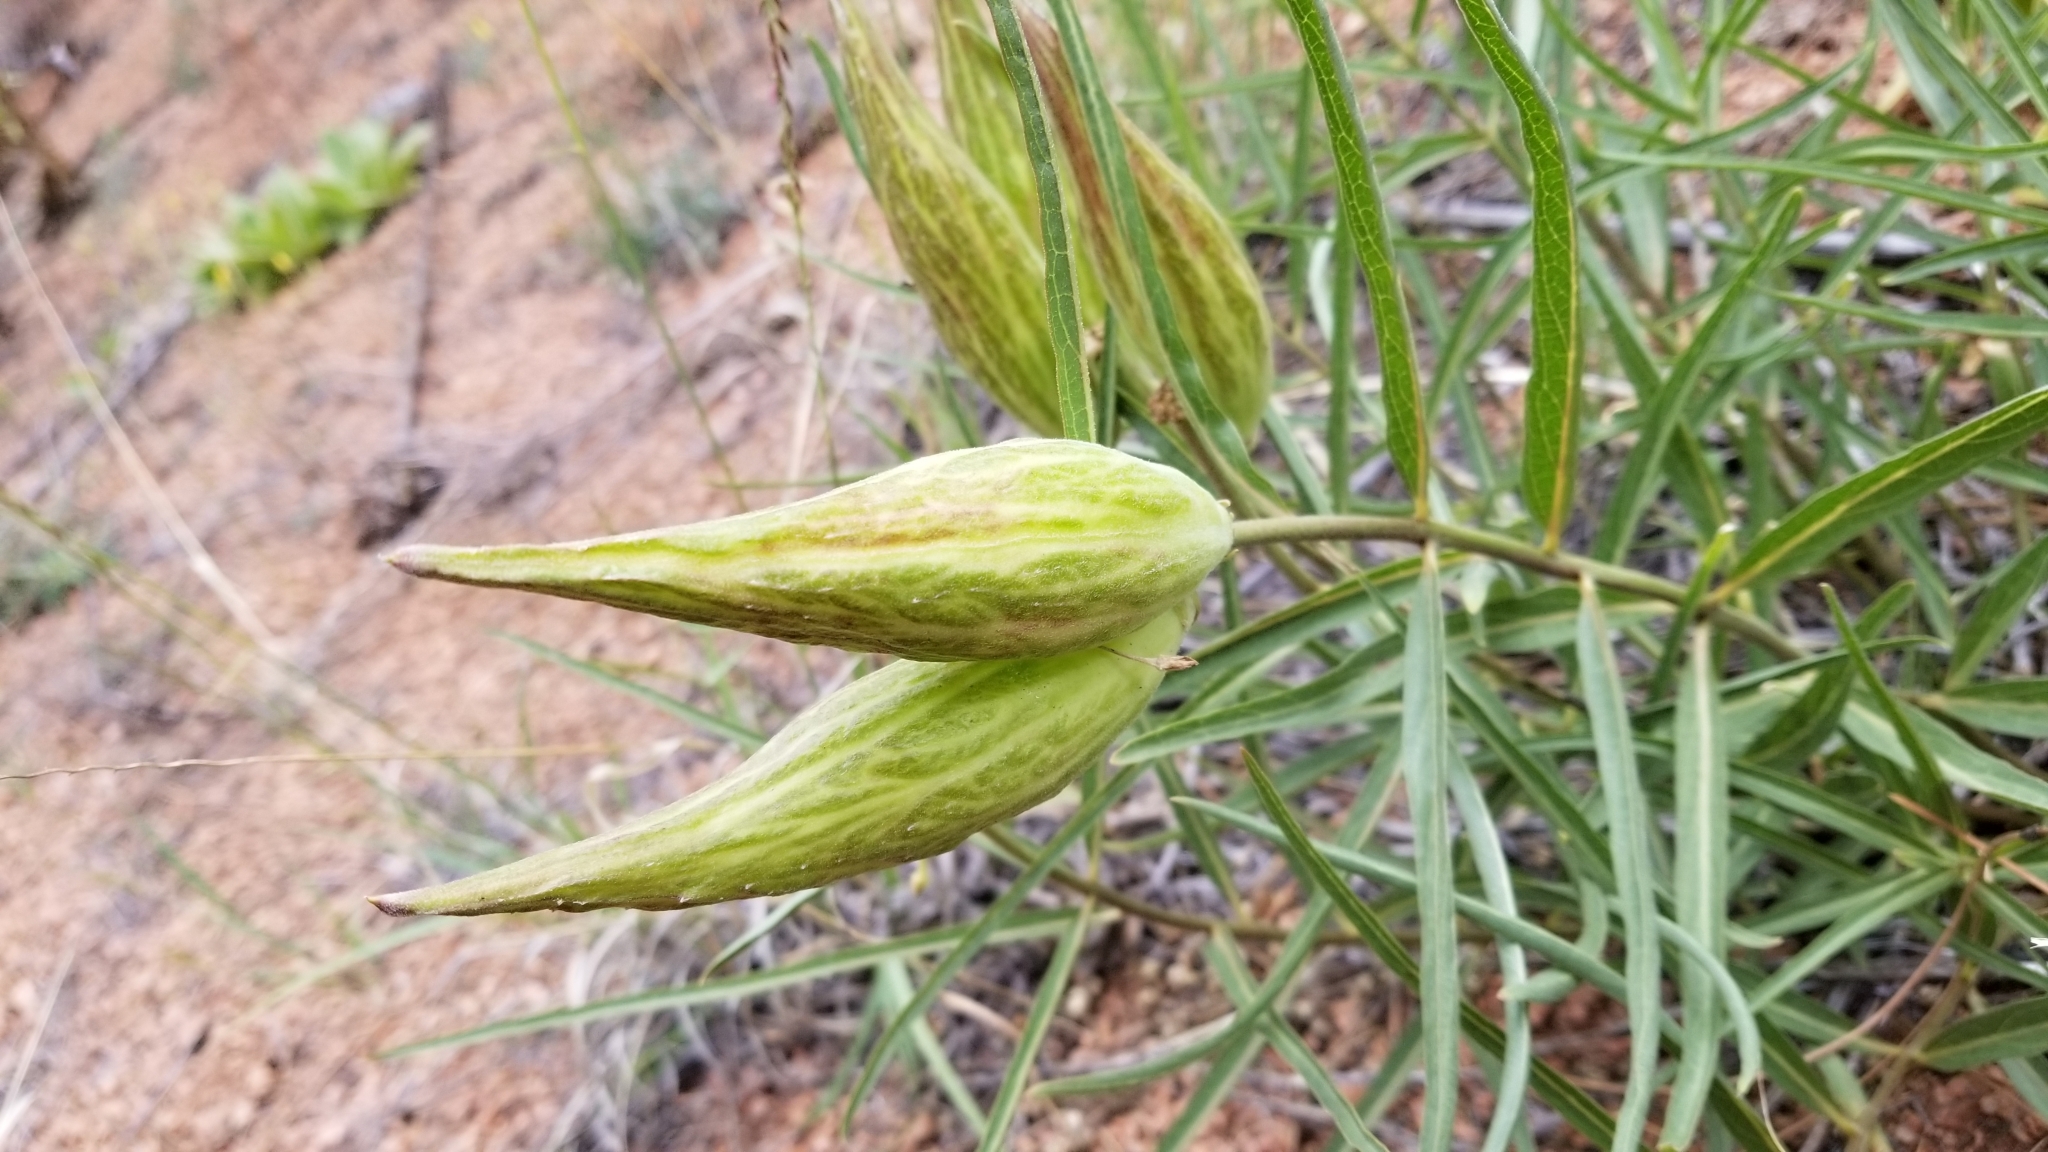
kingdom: Plantae
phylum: Tracheophyta
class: Magnoliopsida
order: Gentianales
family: Apocynaceae
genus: Asclepias
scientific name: Asclepias asperula
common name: Antelope horns
